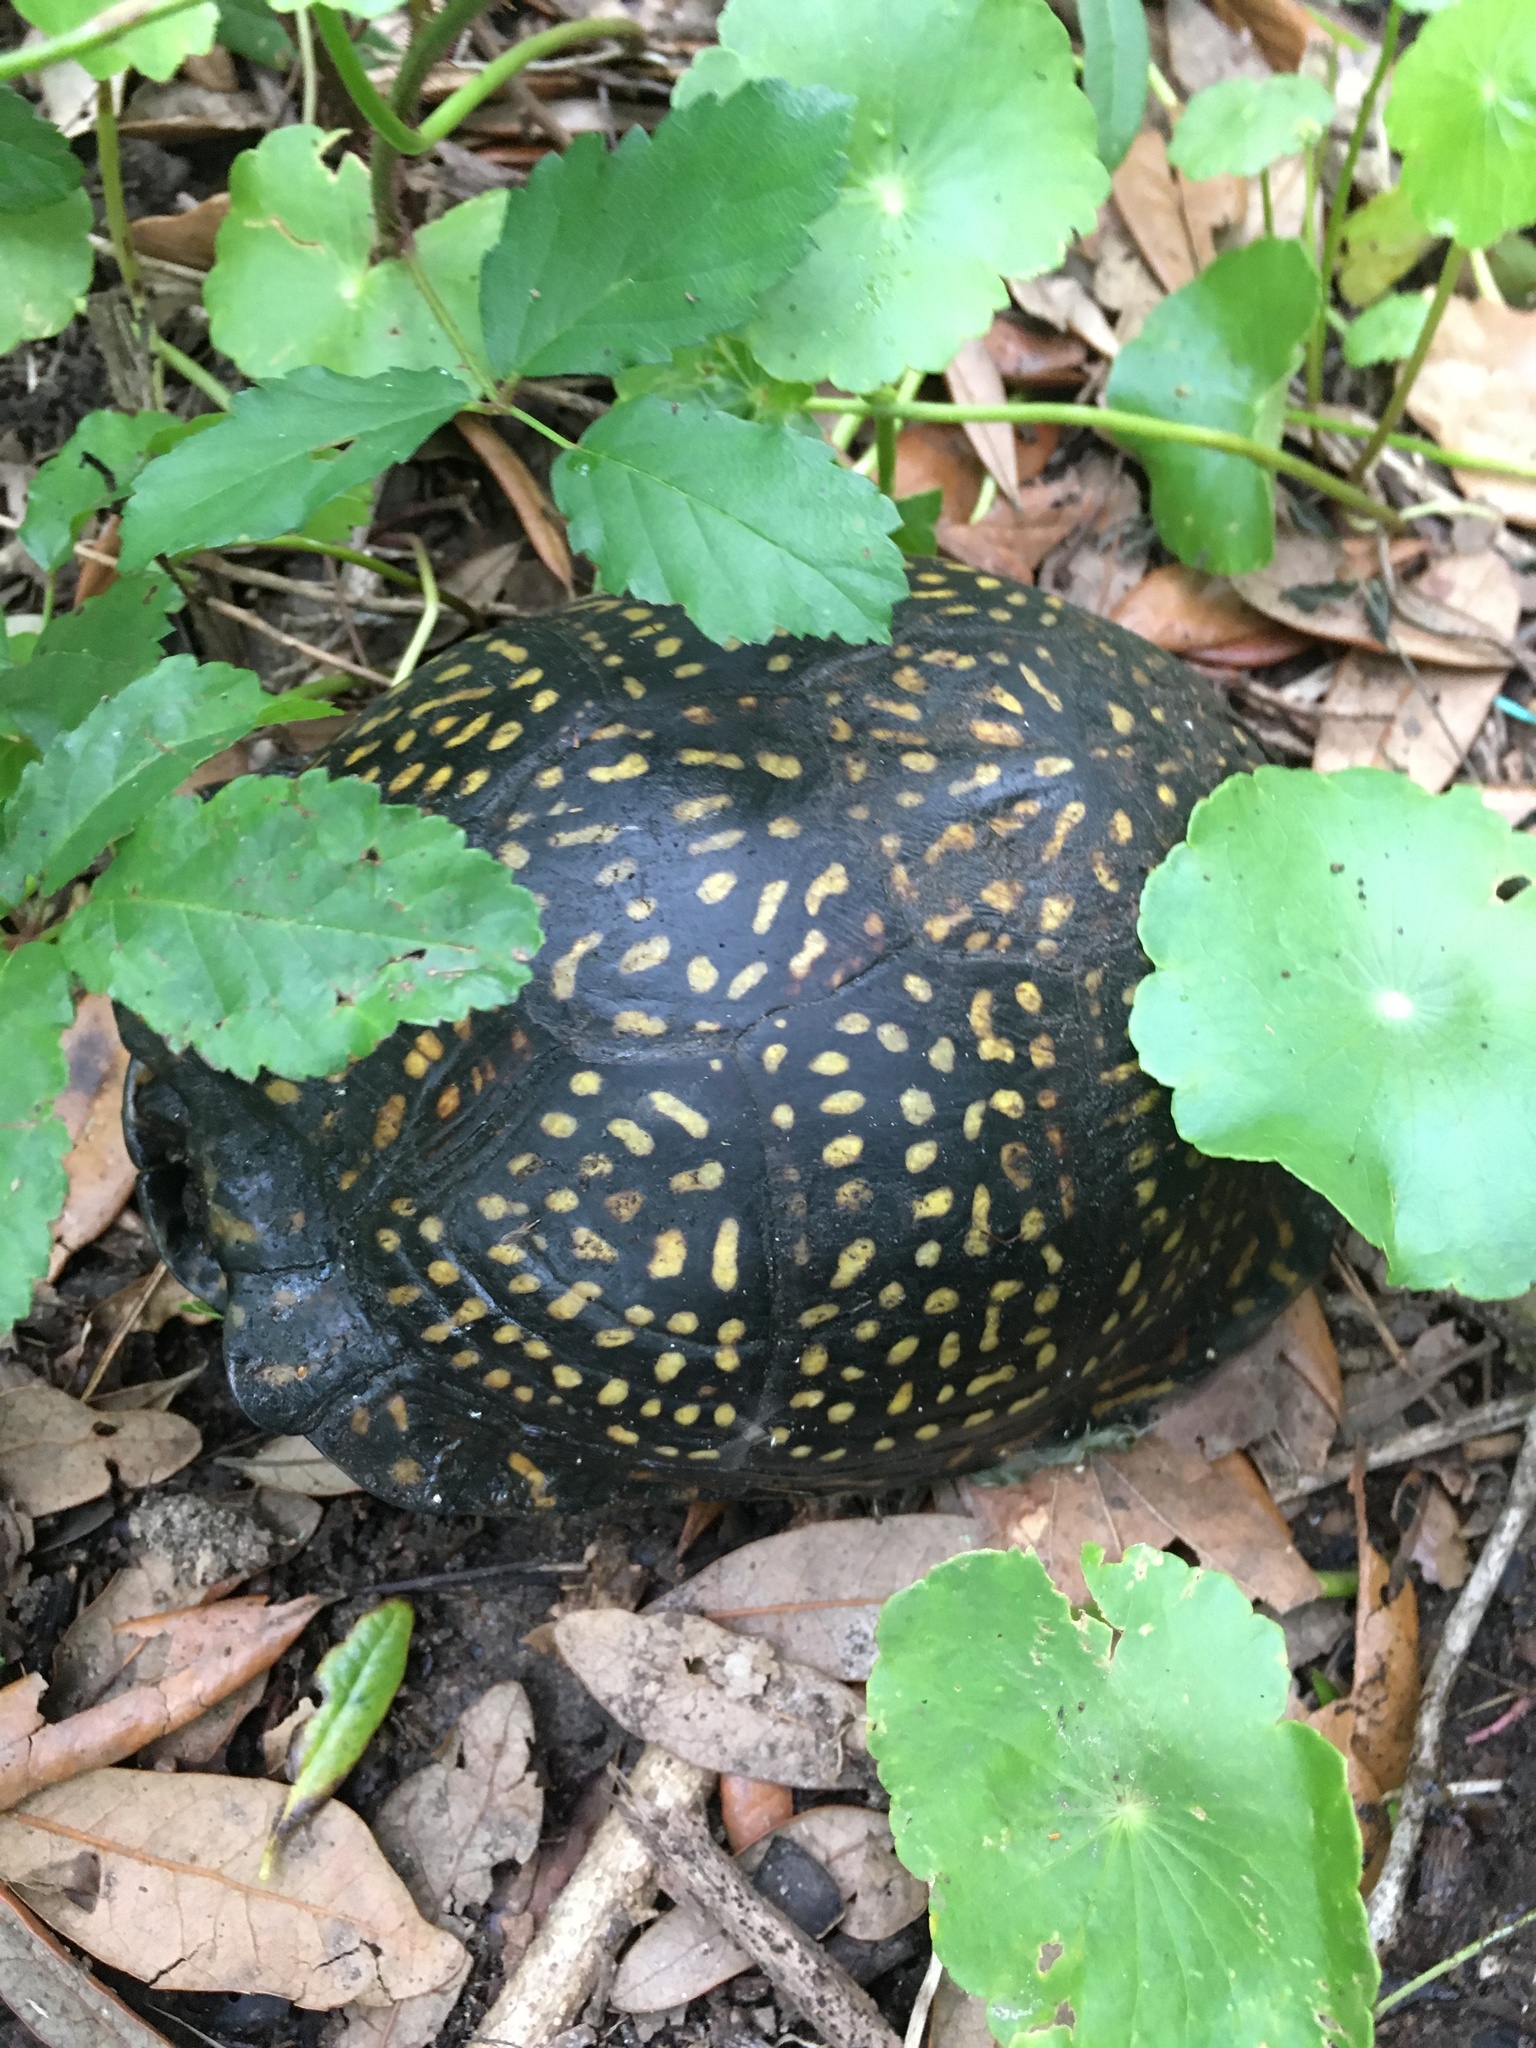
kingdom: Animalia
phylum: Chordata
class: Testudines
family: Emydidae
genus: Terrapene
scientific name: Terrapene carolina
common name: Common box turtle
